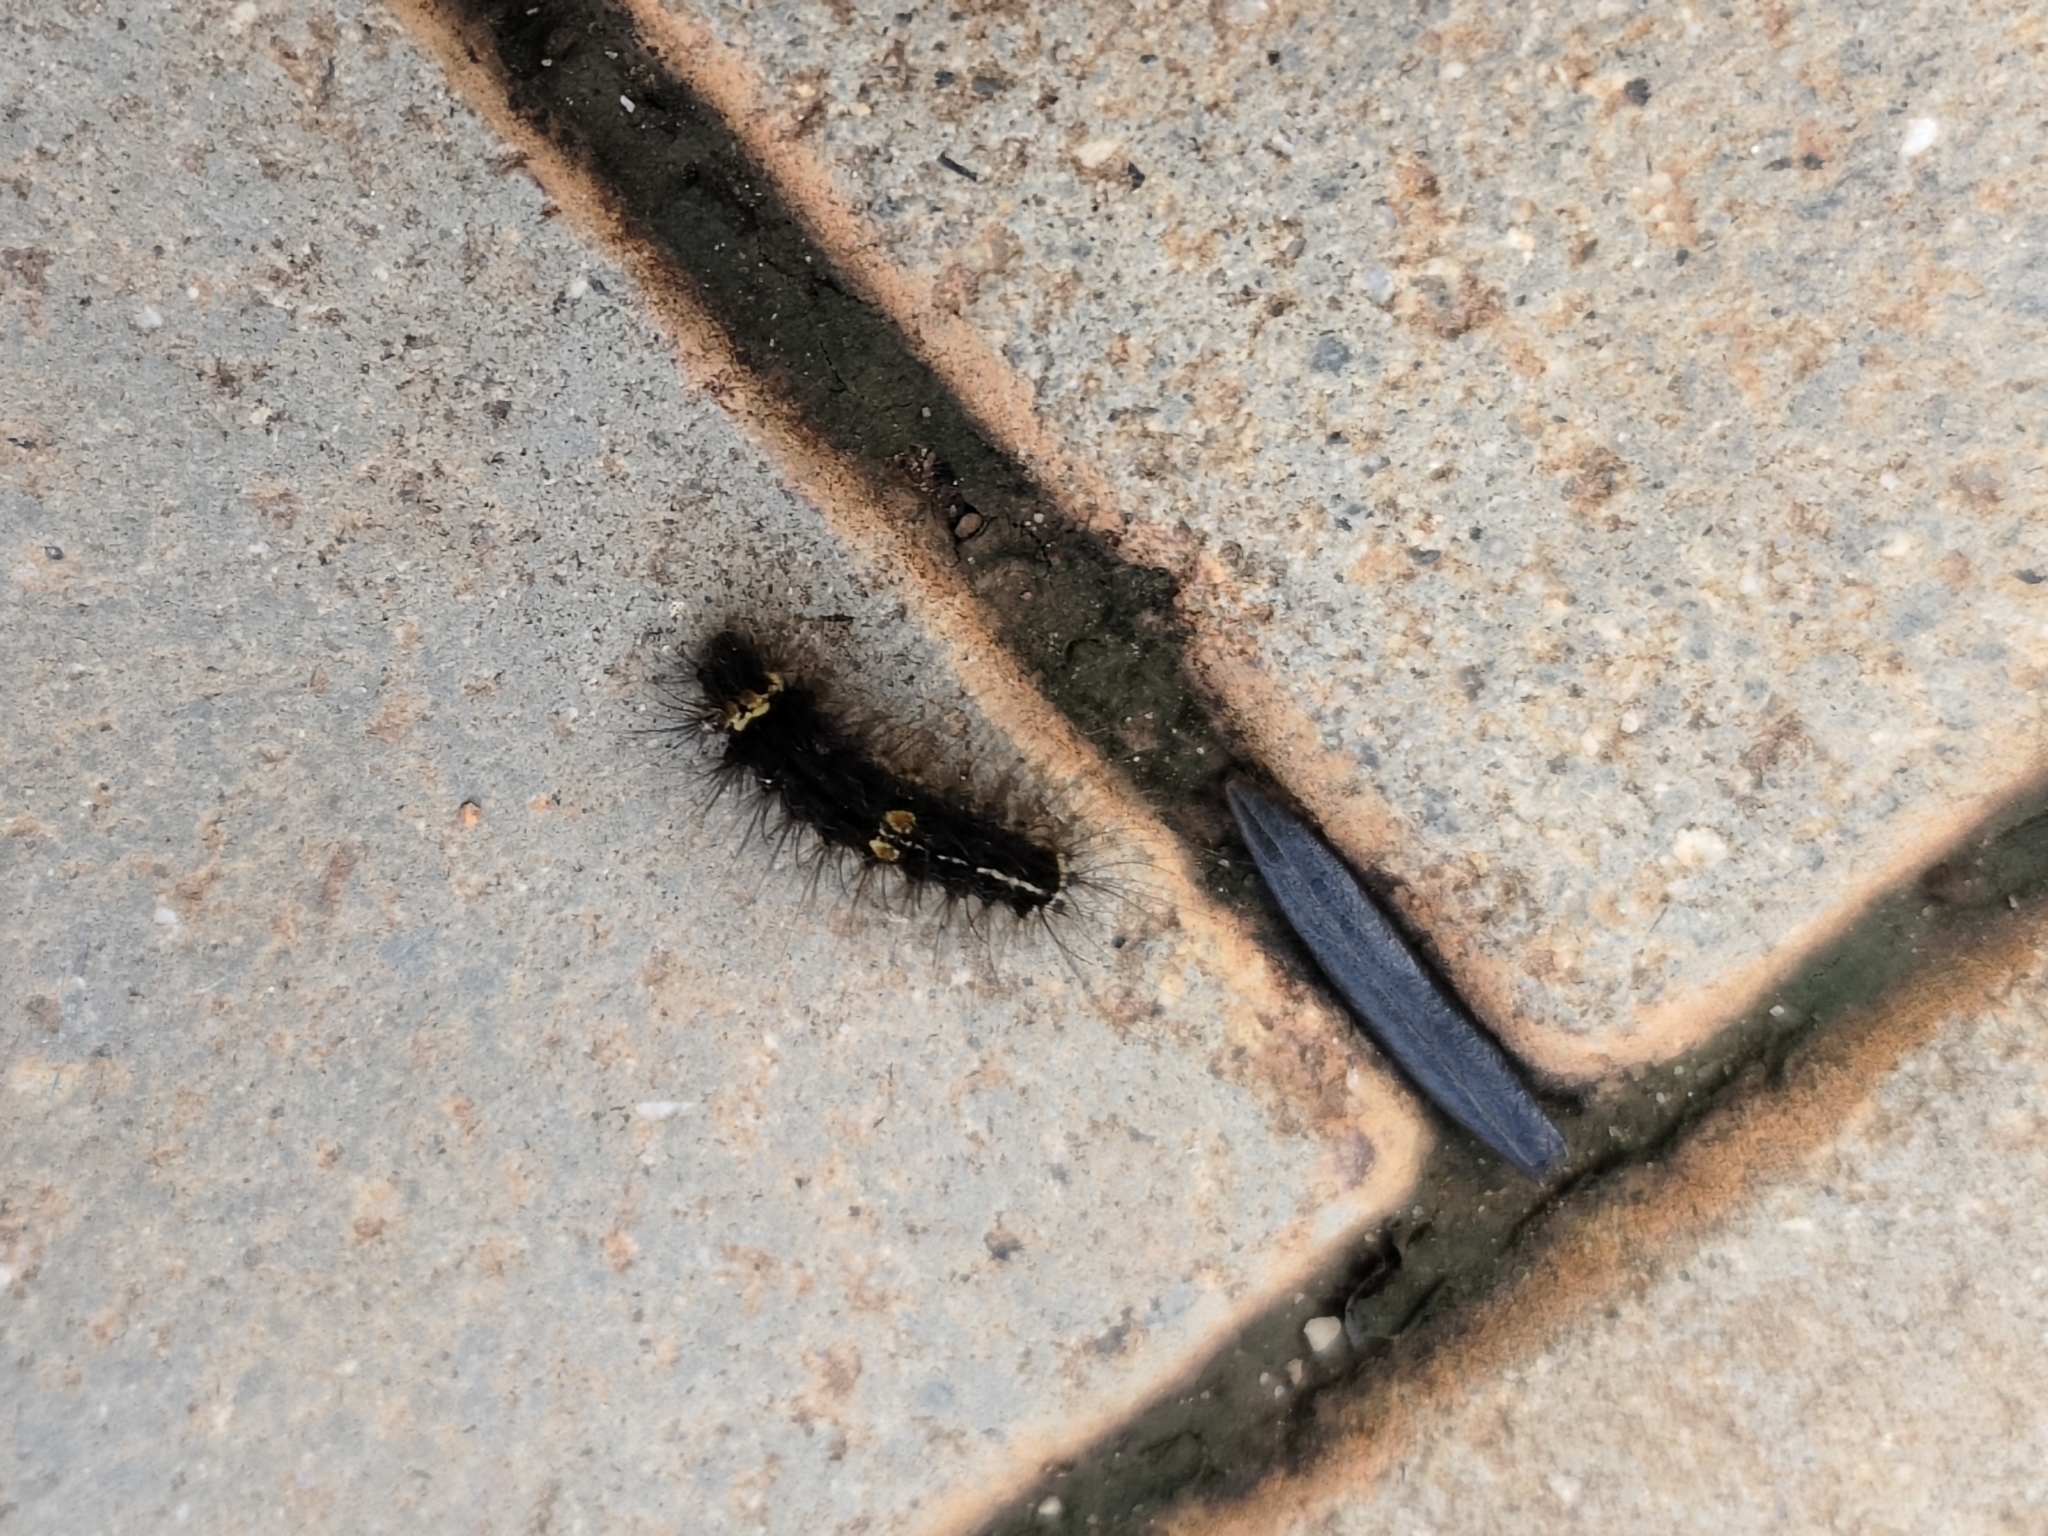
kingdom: Animalia
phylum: Arthropoda
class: Insecta
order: Lepidoptera
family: Erebidae
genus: Nepita
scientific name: Nepita conferta
